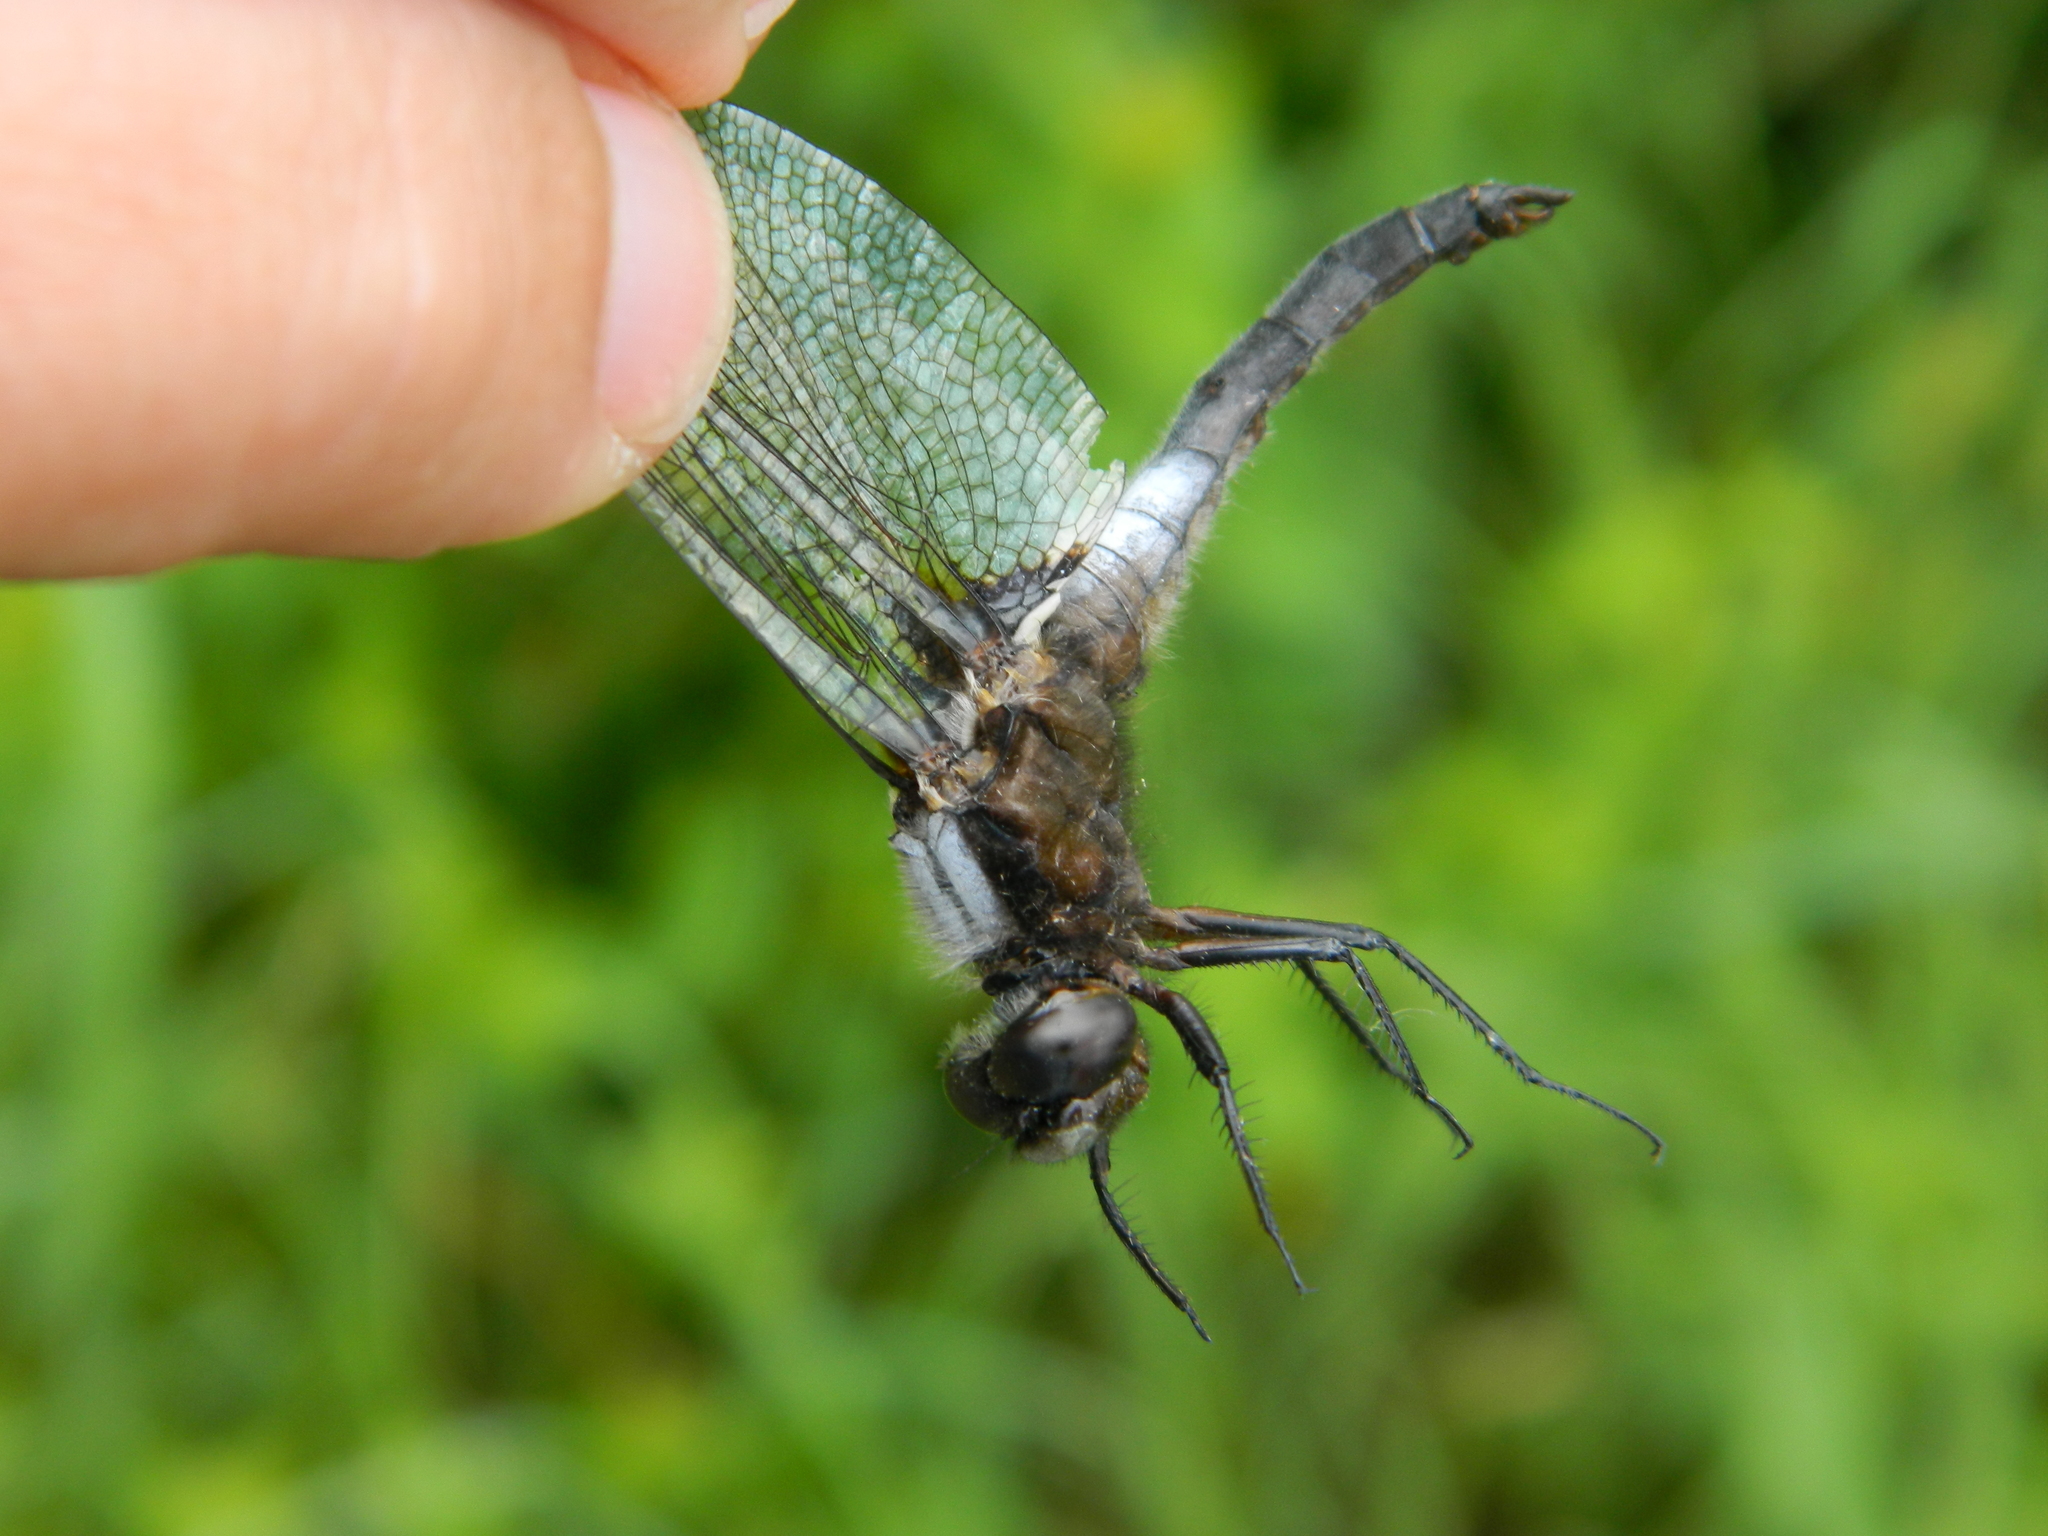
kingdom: Animalia
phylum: Arthropoda
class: Insecta
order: Odonata
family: Libellulidae
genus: Ladona
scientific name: Ladona julia
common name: Chalk-fronted corporal
